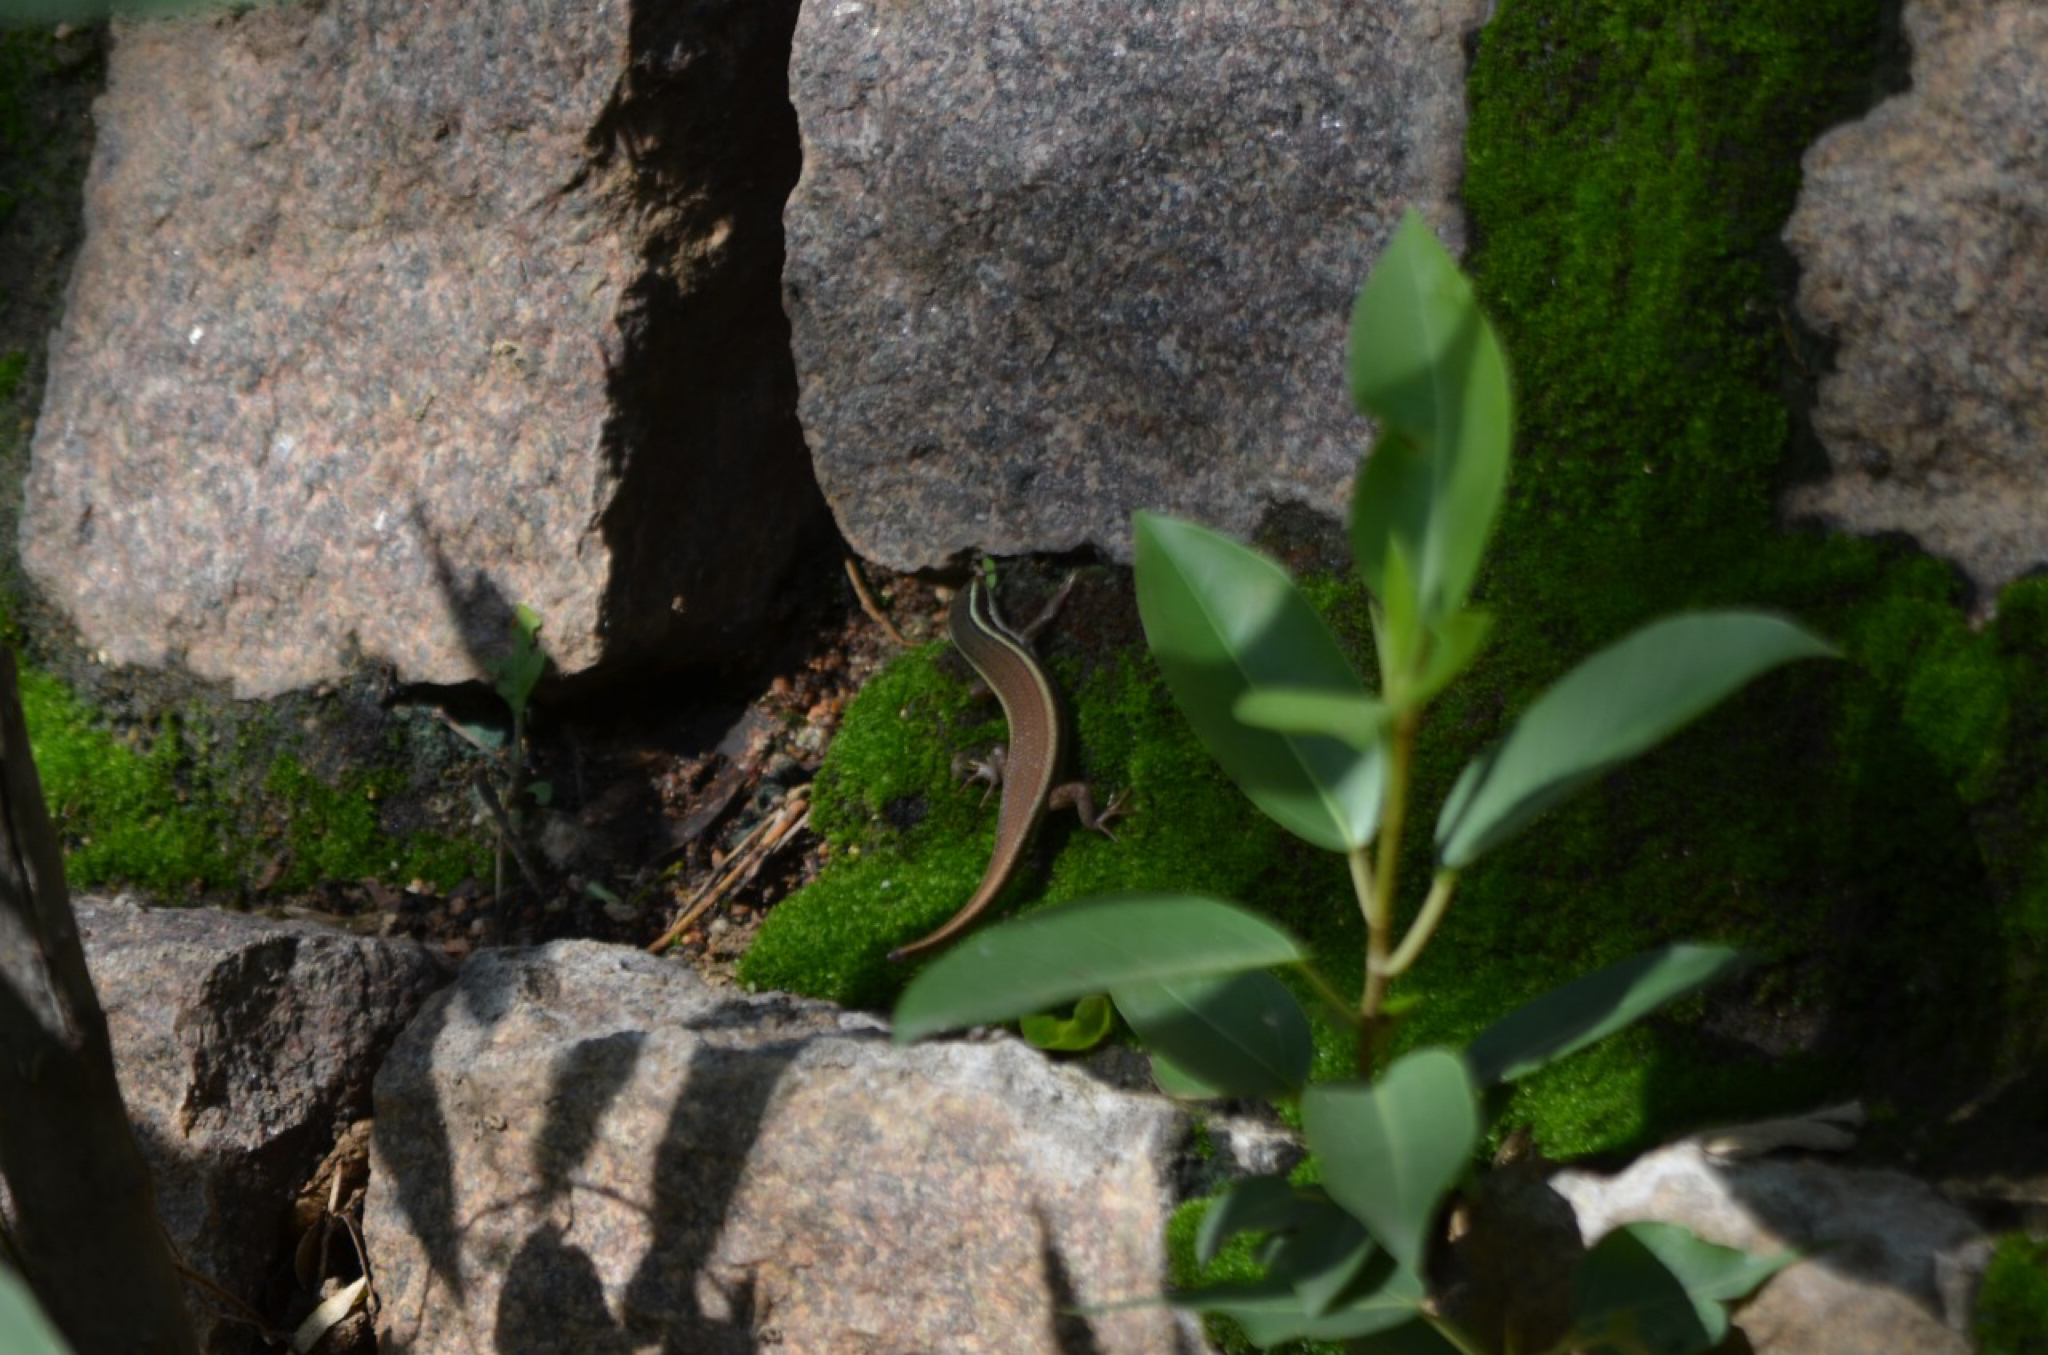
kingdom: Animalia
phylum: Chordata
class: Squamata
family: Scincidae
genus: Eutropis
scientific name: Eutropis carinata
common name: Keeled indian mabuya
